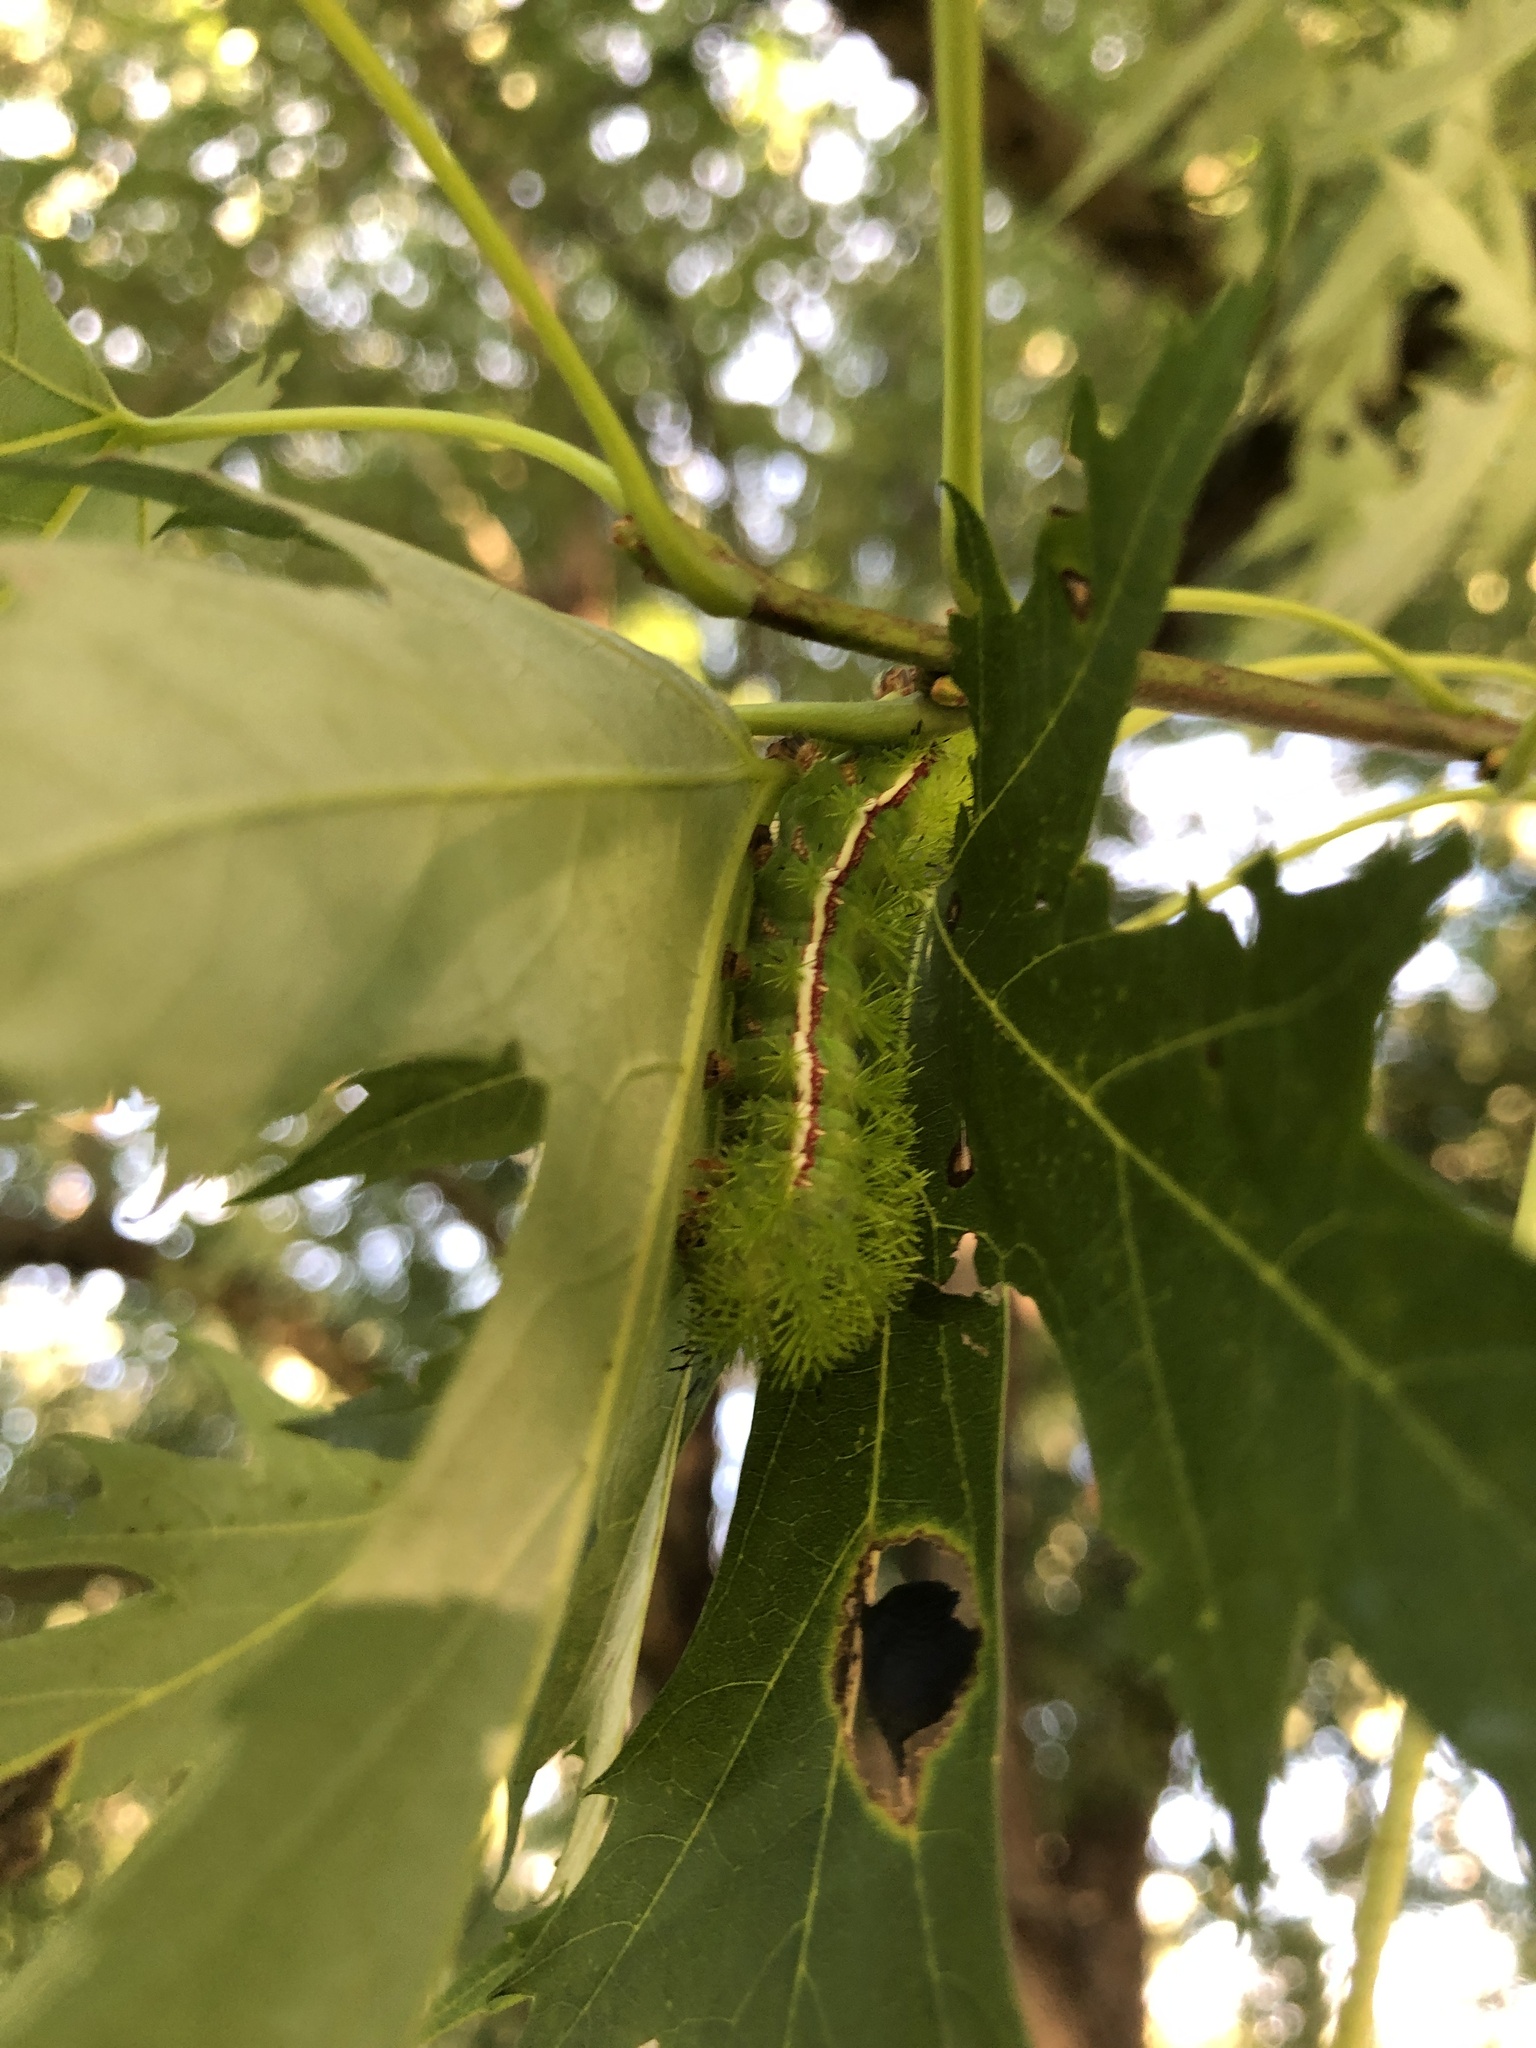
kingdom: Animalia
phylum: Arthropoda
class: Insecta
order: Lepidoptera
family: Saturniidae
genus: Automeris
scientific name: Automeris io
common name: Io moth
